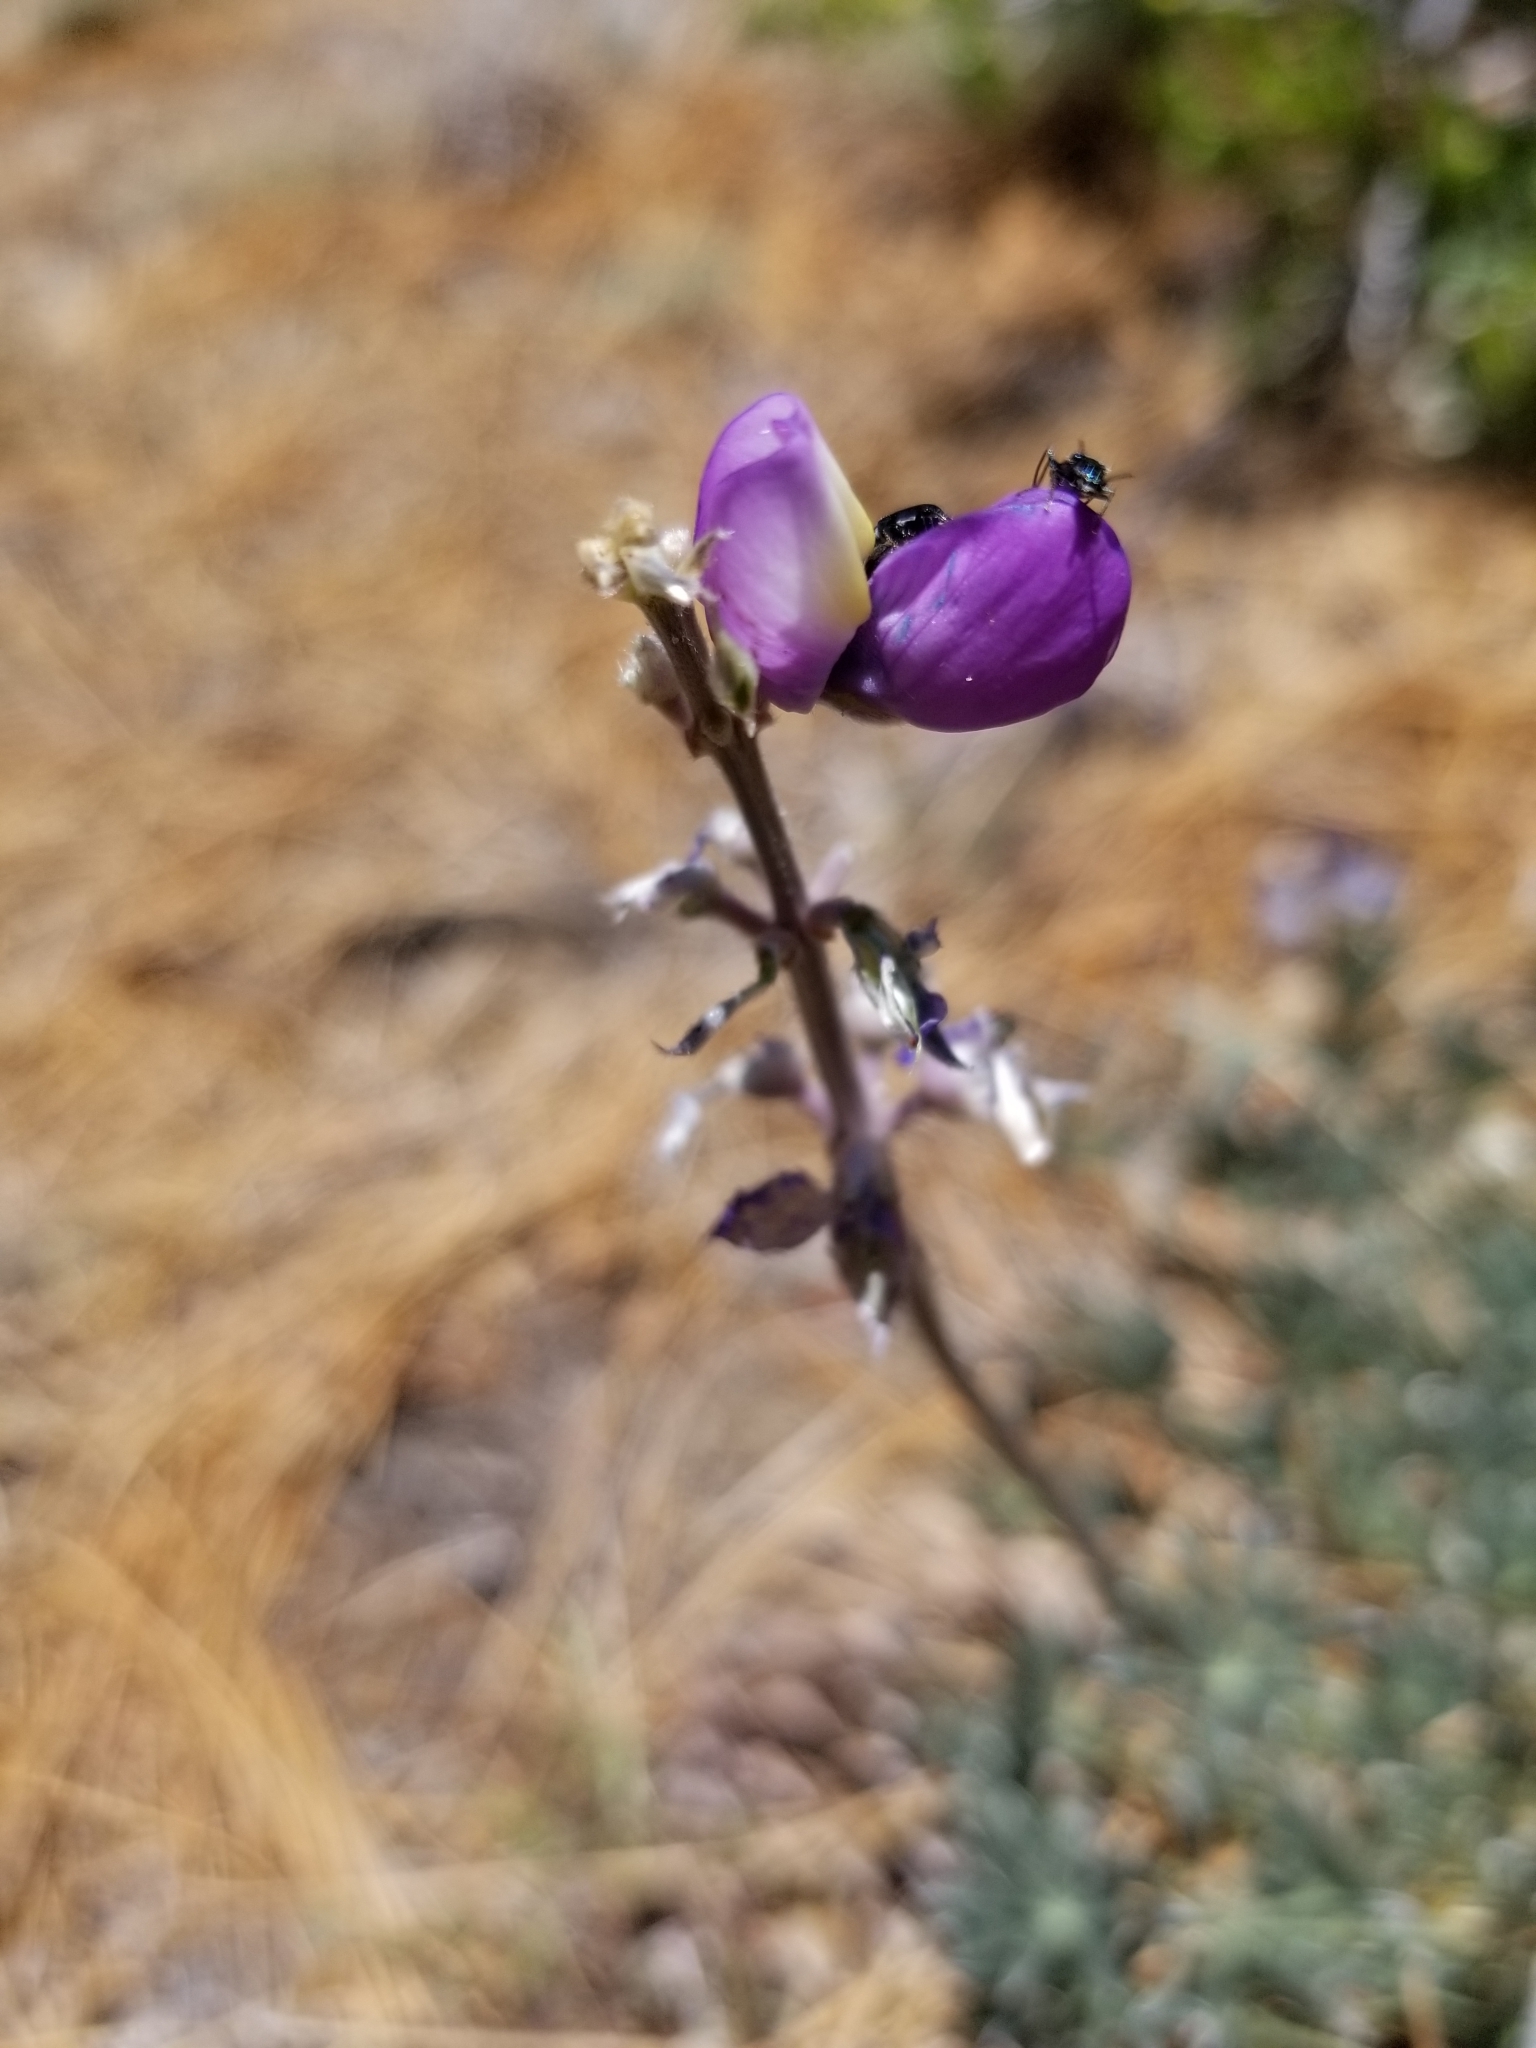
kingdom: Plantae
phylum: Tracheophyta
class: Magnoliopsida
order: Fabales
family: Fabaceae
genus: Lupinus
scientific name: Lupinus excubitus
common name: Grape soda lupine
